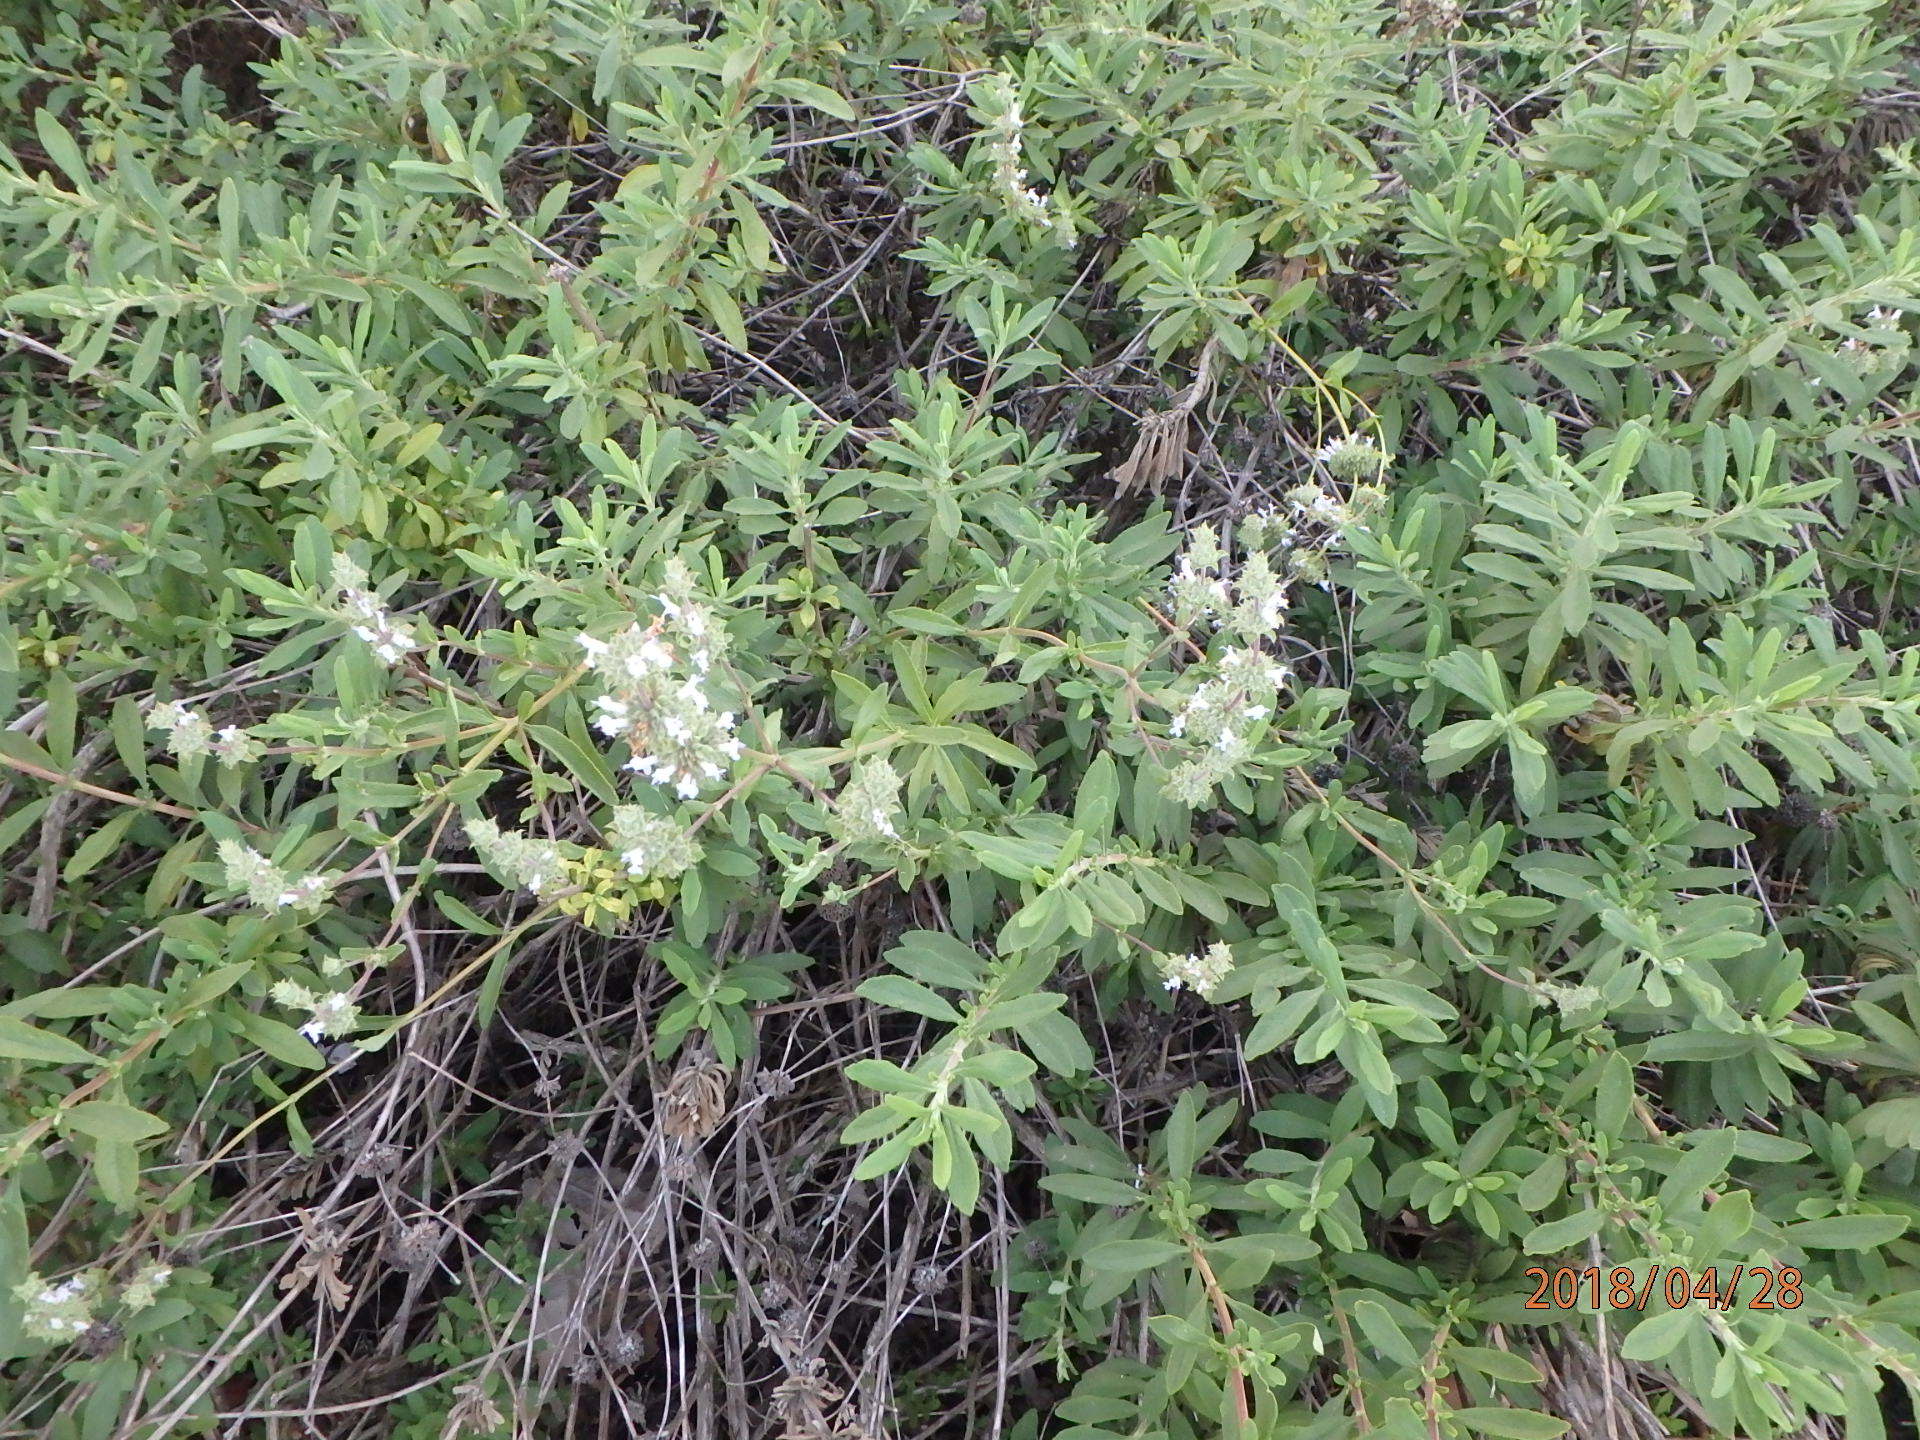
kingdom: Plantae
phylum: Tracheophyta
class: Magnoliopsida
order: Lamiales
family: Lamiaceae
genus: Salvia
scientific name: Salvia mellifera
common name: Black sage
